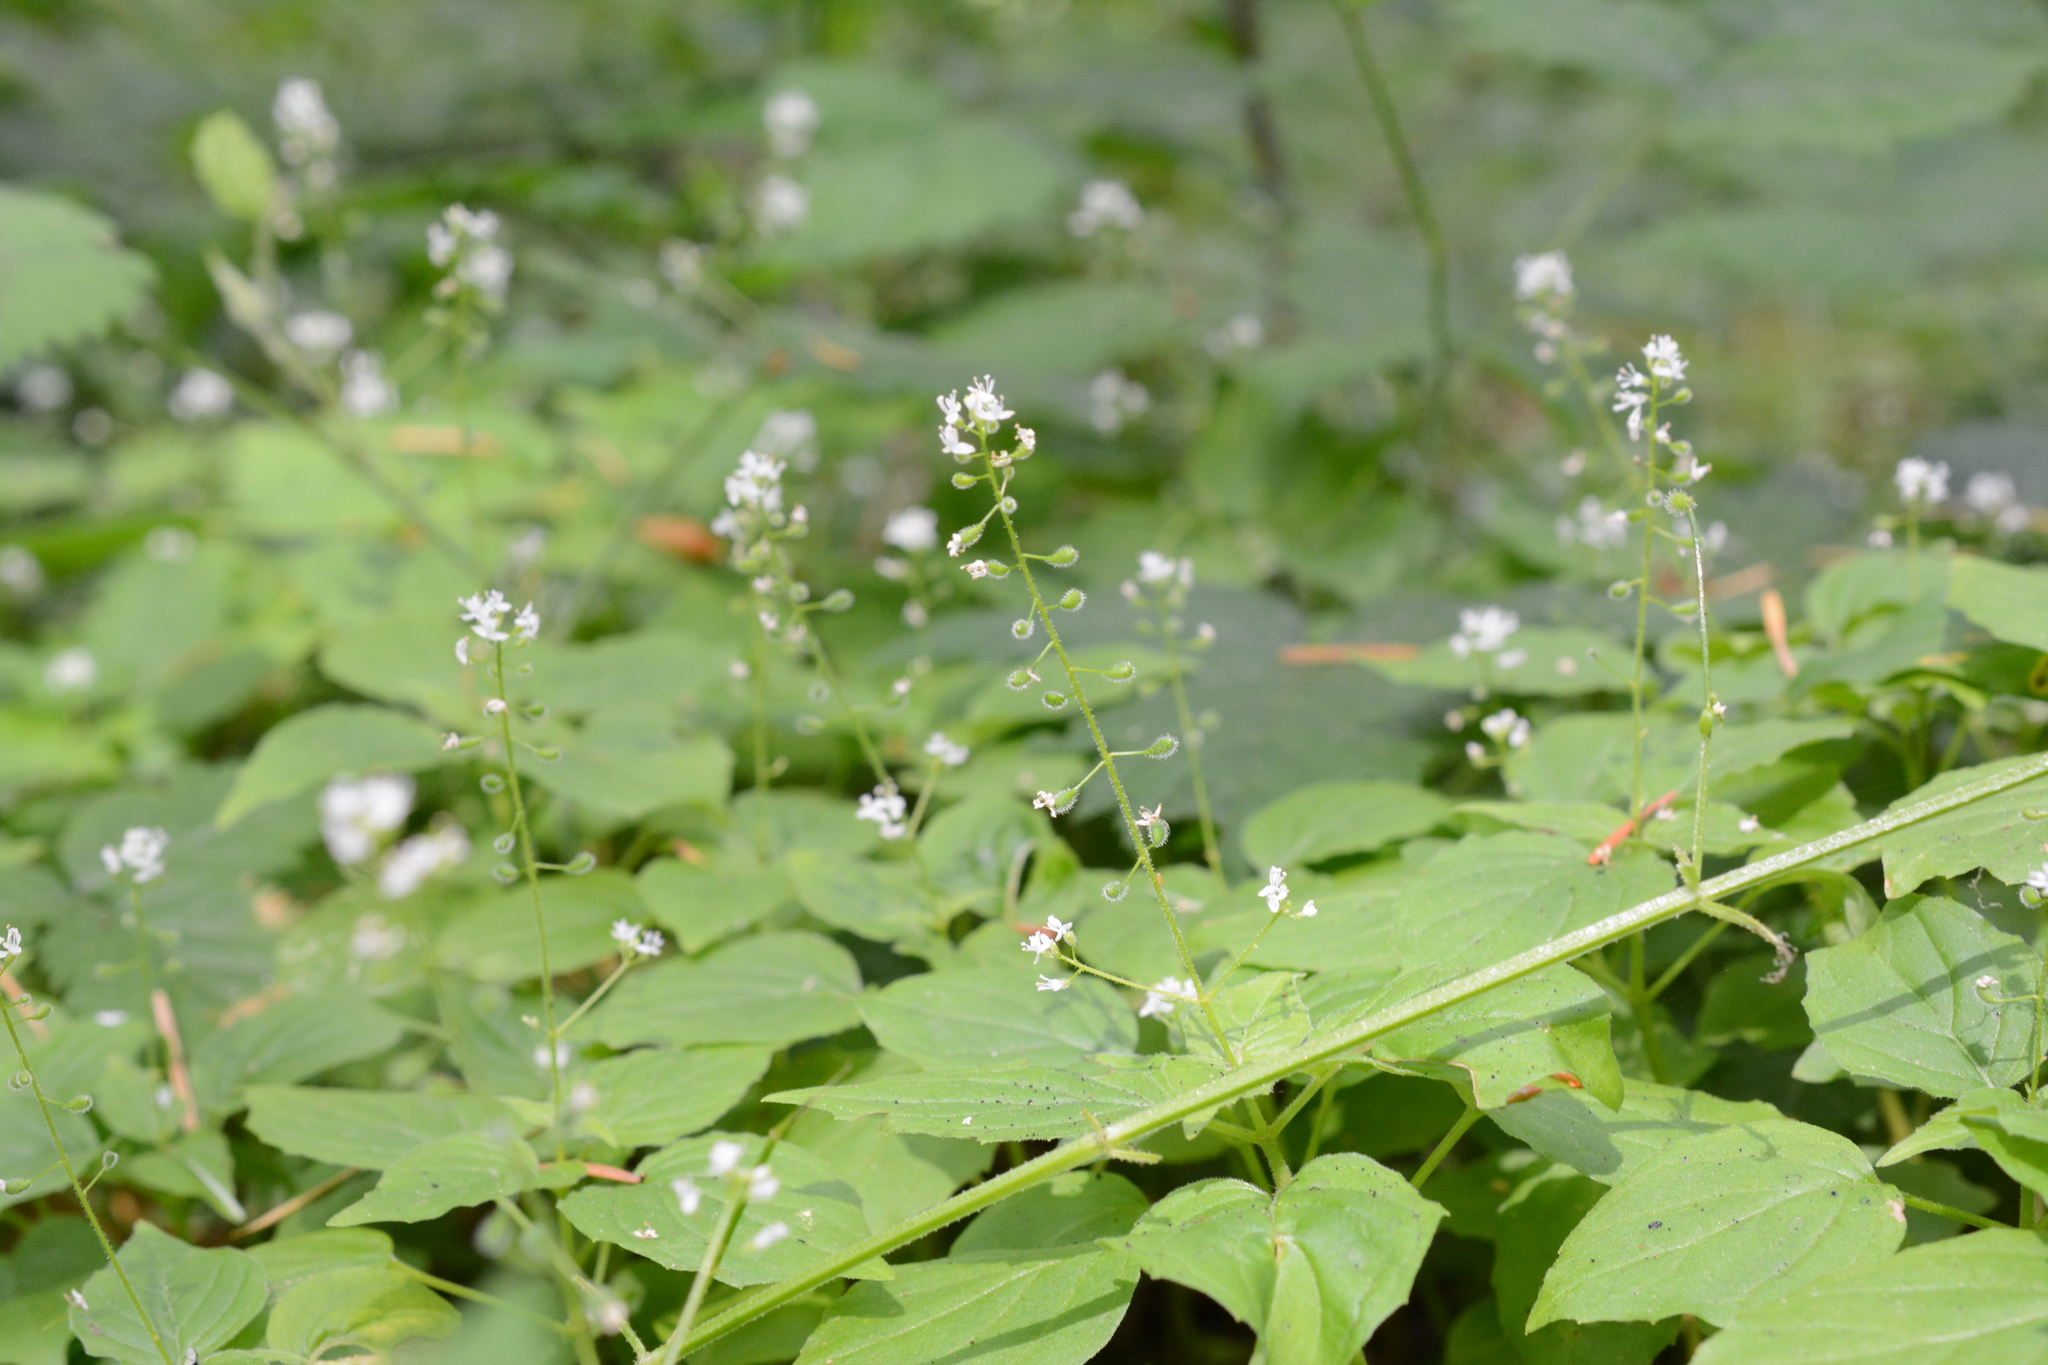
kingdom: Plantae
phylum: Tracheophyta
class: Magnoliopsida
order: Myrtales
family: Onagraceae
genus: Circaea
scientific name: Circaea alpina
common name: Alpine enchanter's-nightshade
